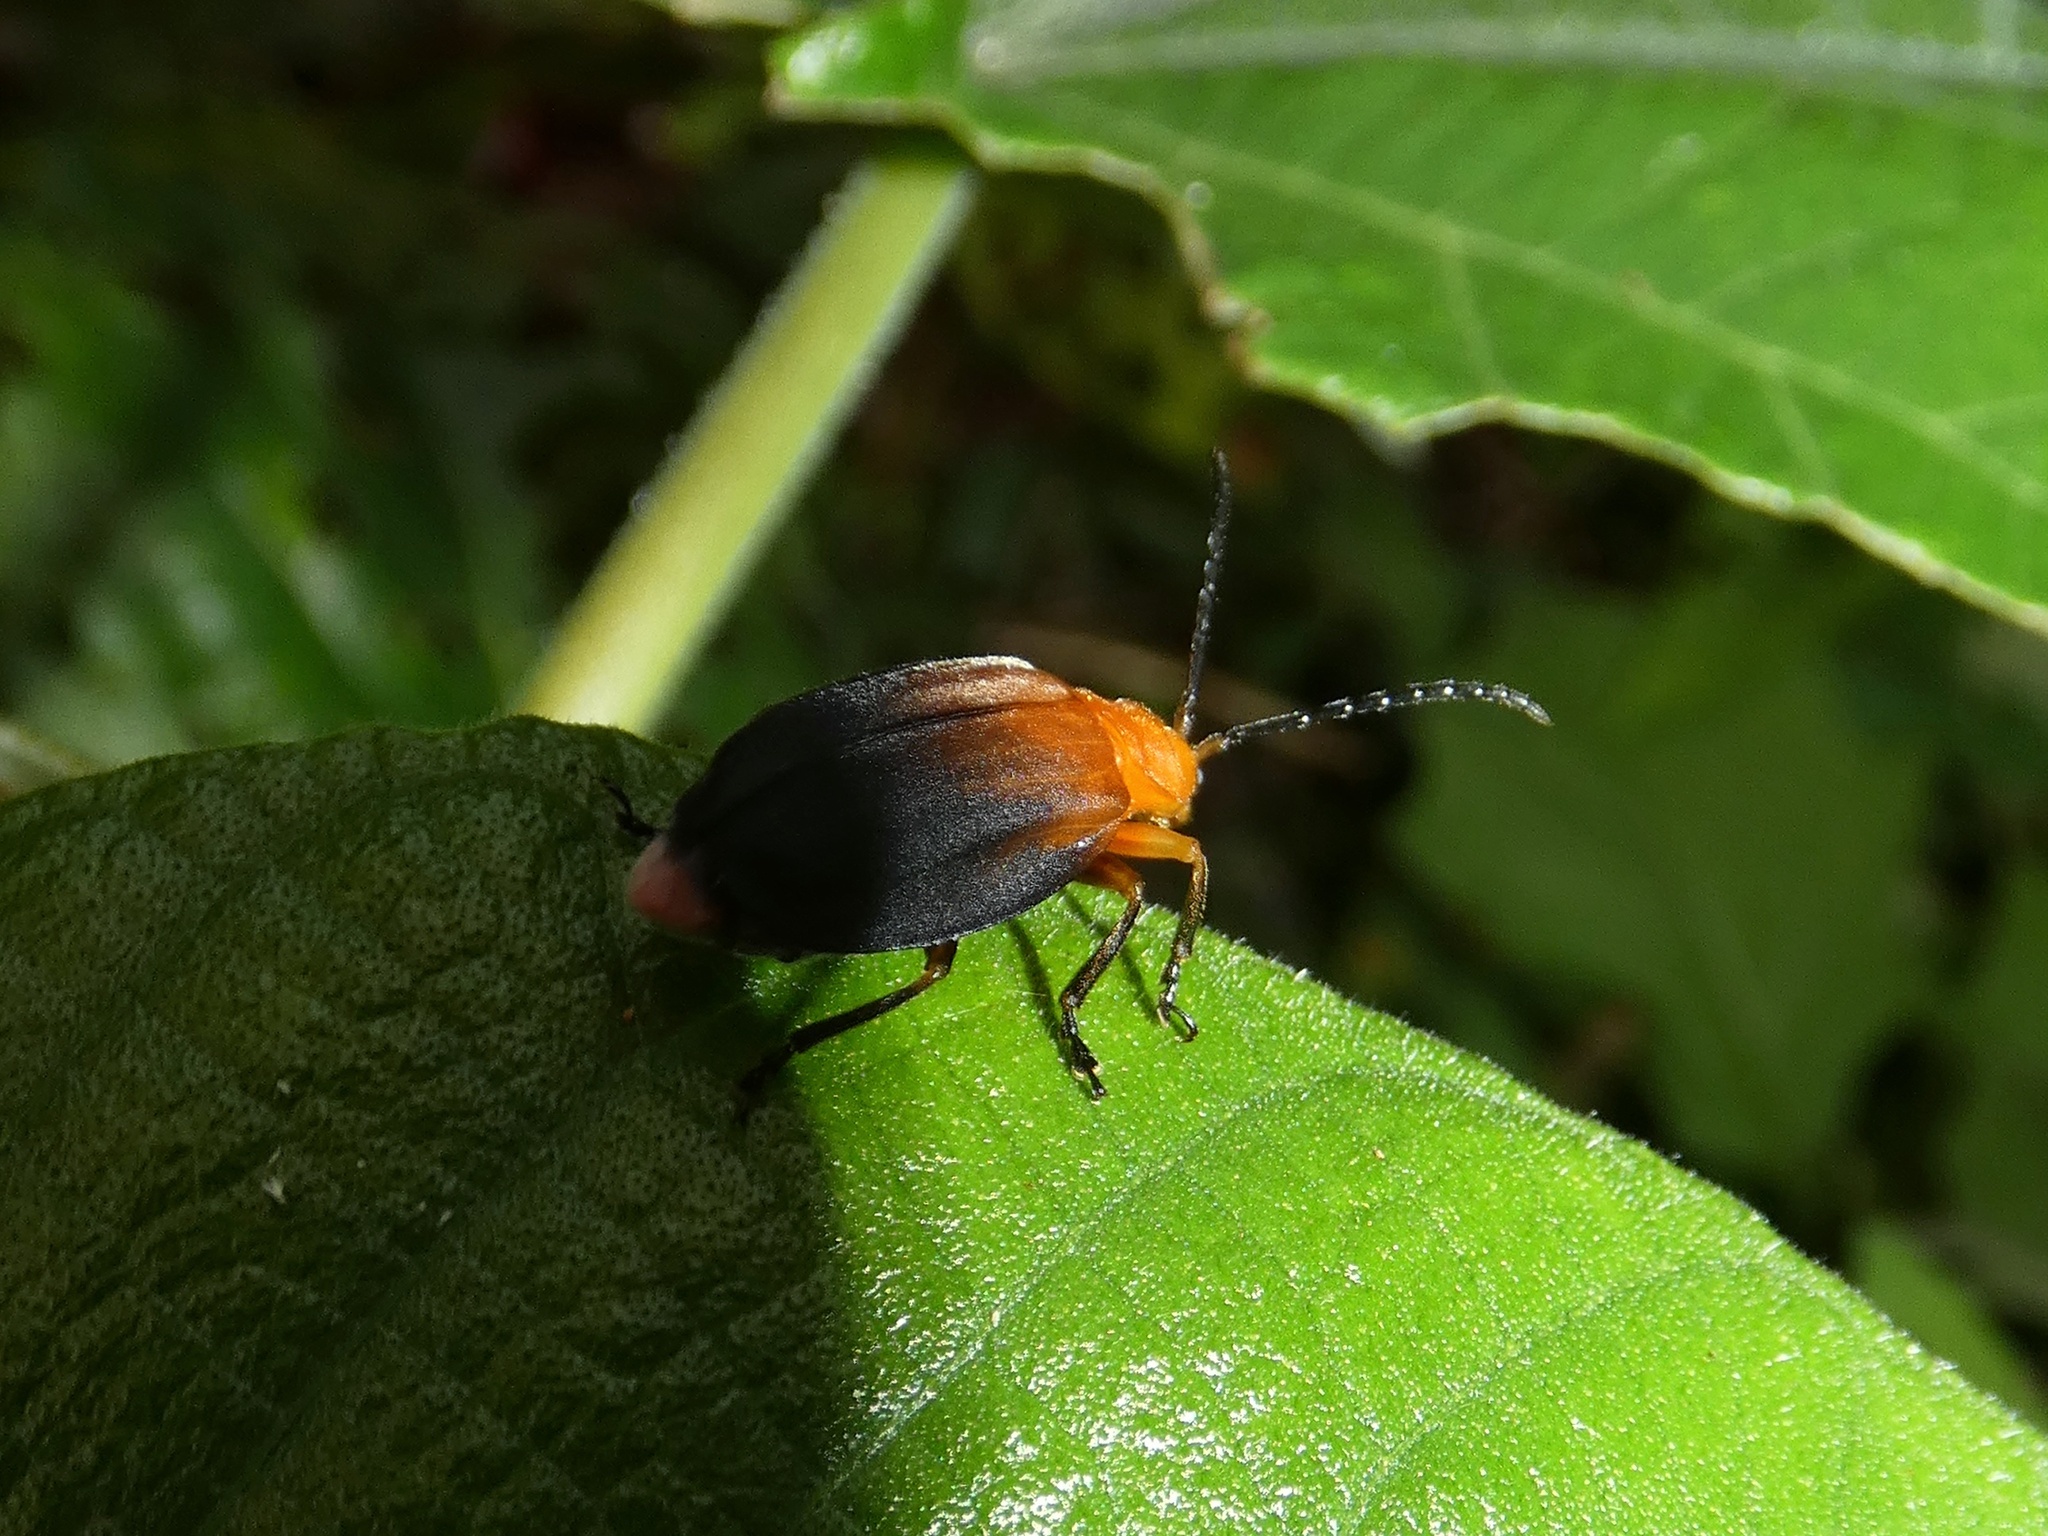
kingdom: Animalia
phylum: Arthropoda
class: Insecta
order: Coleoptera
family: Chrysomelidae
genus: Platycesta
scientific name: Platycesta
